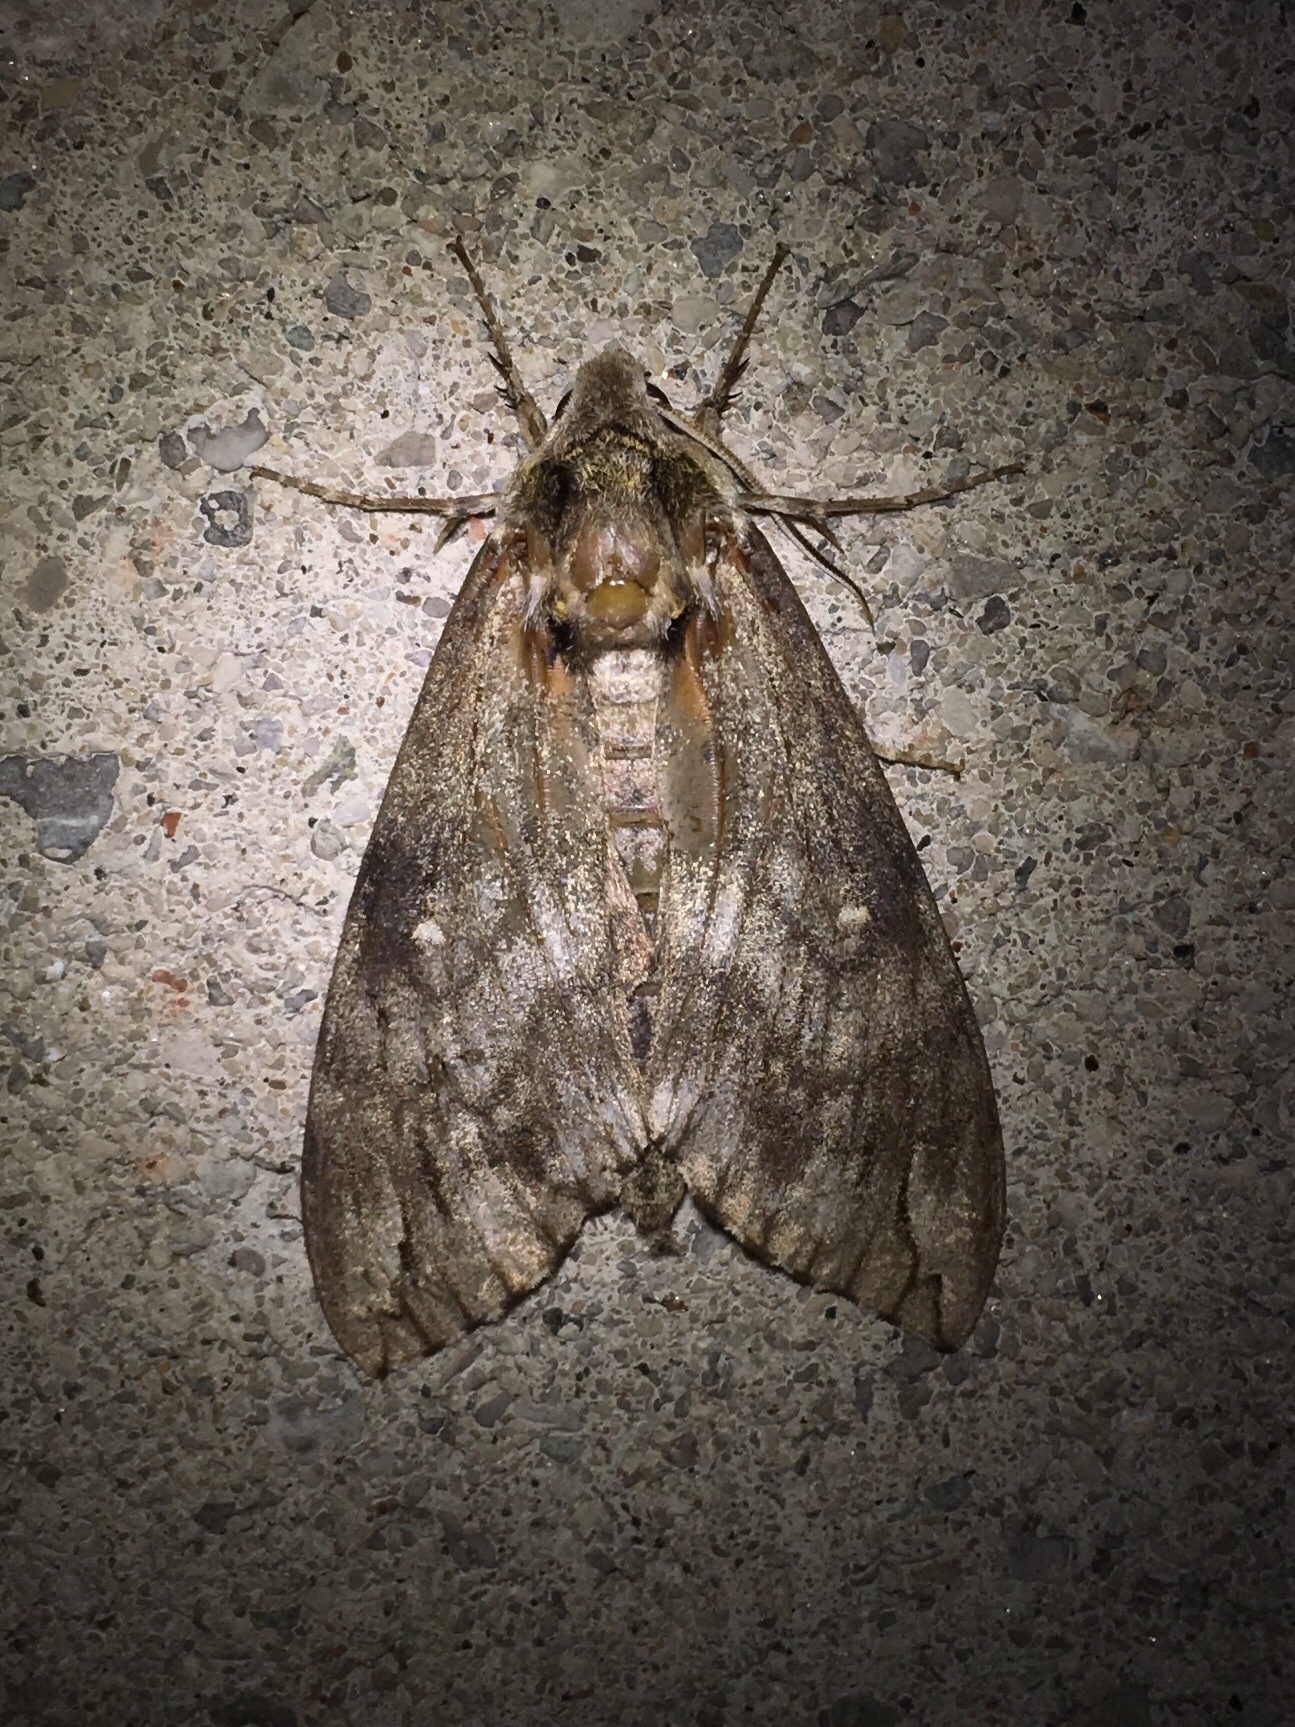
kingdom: Animalia
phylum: Arthropoda
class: Insecta
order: Lepidoptera
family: Sphingidae
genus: Ceratomia
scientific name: Ceratomia undulosa
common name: Waved sphinx
